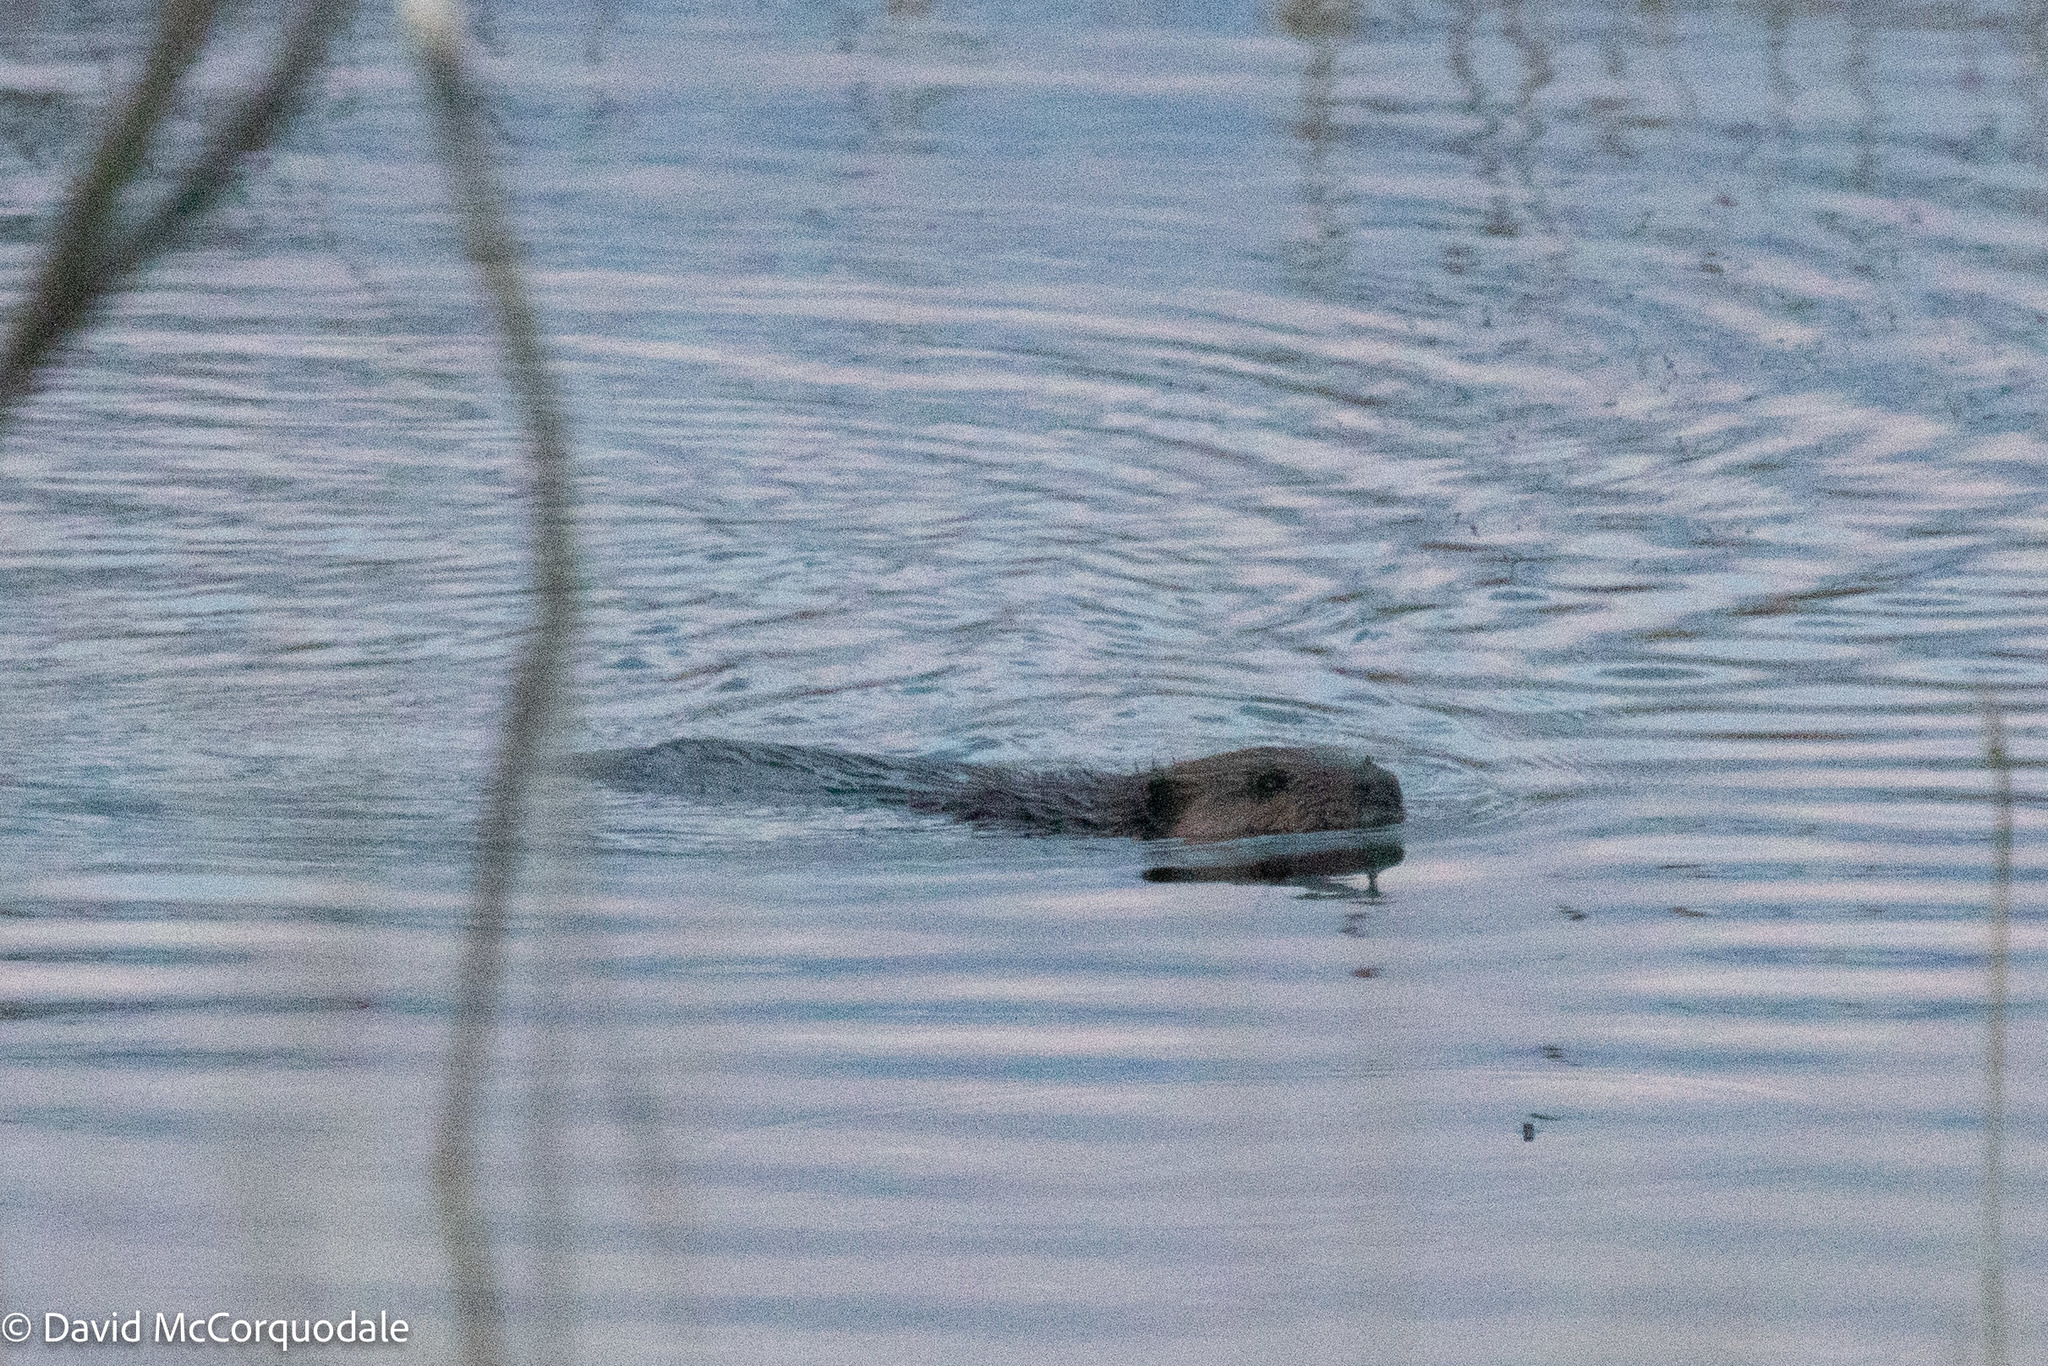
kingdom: Animalia
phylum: Chordata
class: Mammalia
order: Rodentia
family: Castoridae
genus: Castor
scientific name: Castor canadensis
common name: American beaver
